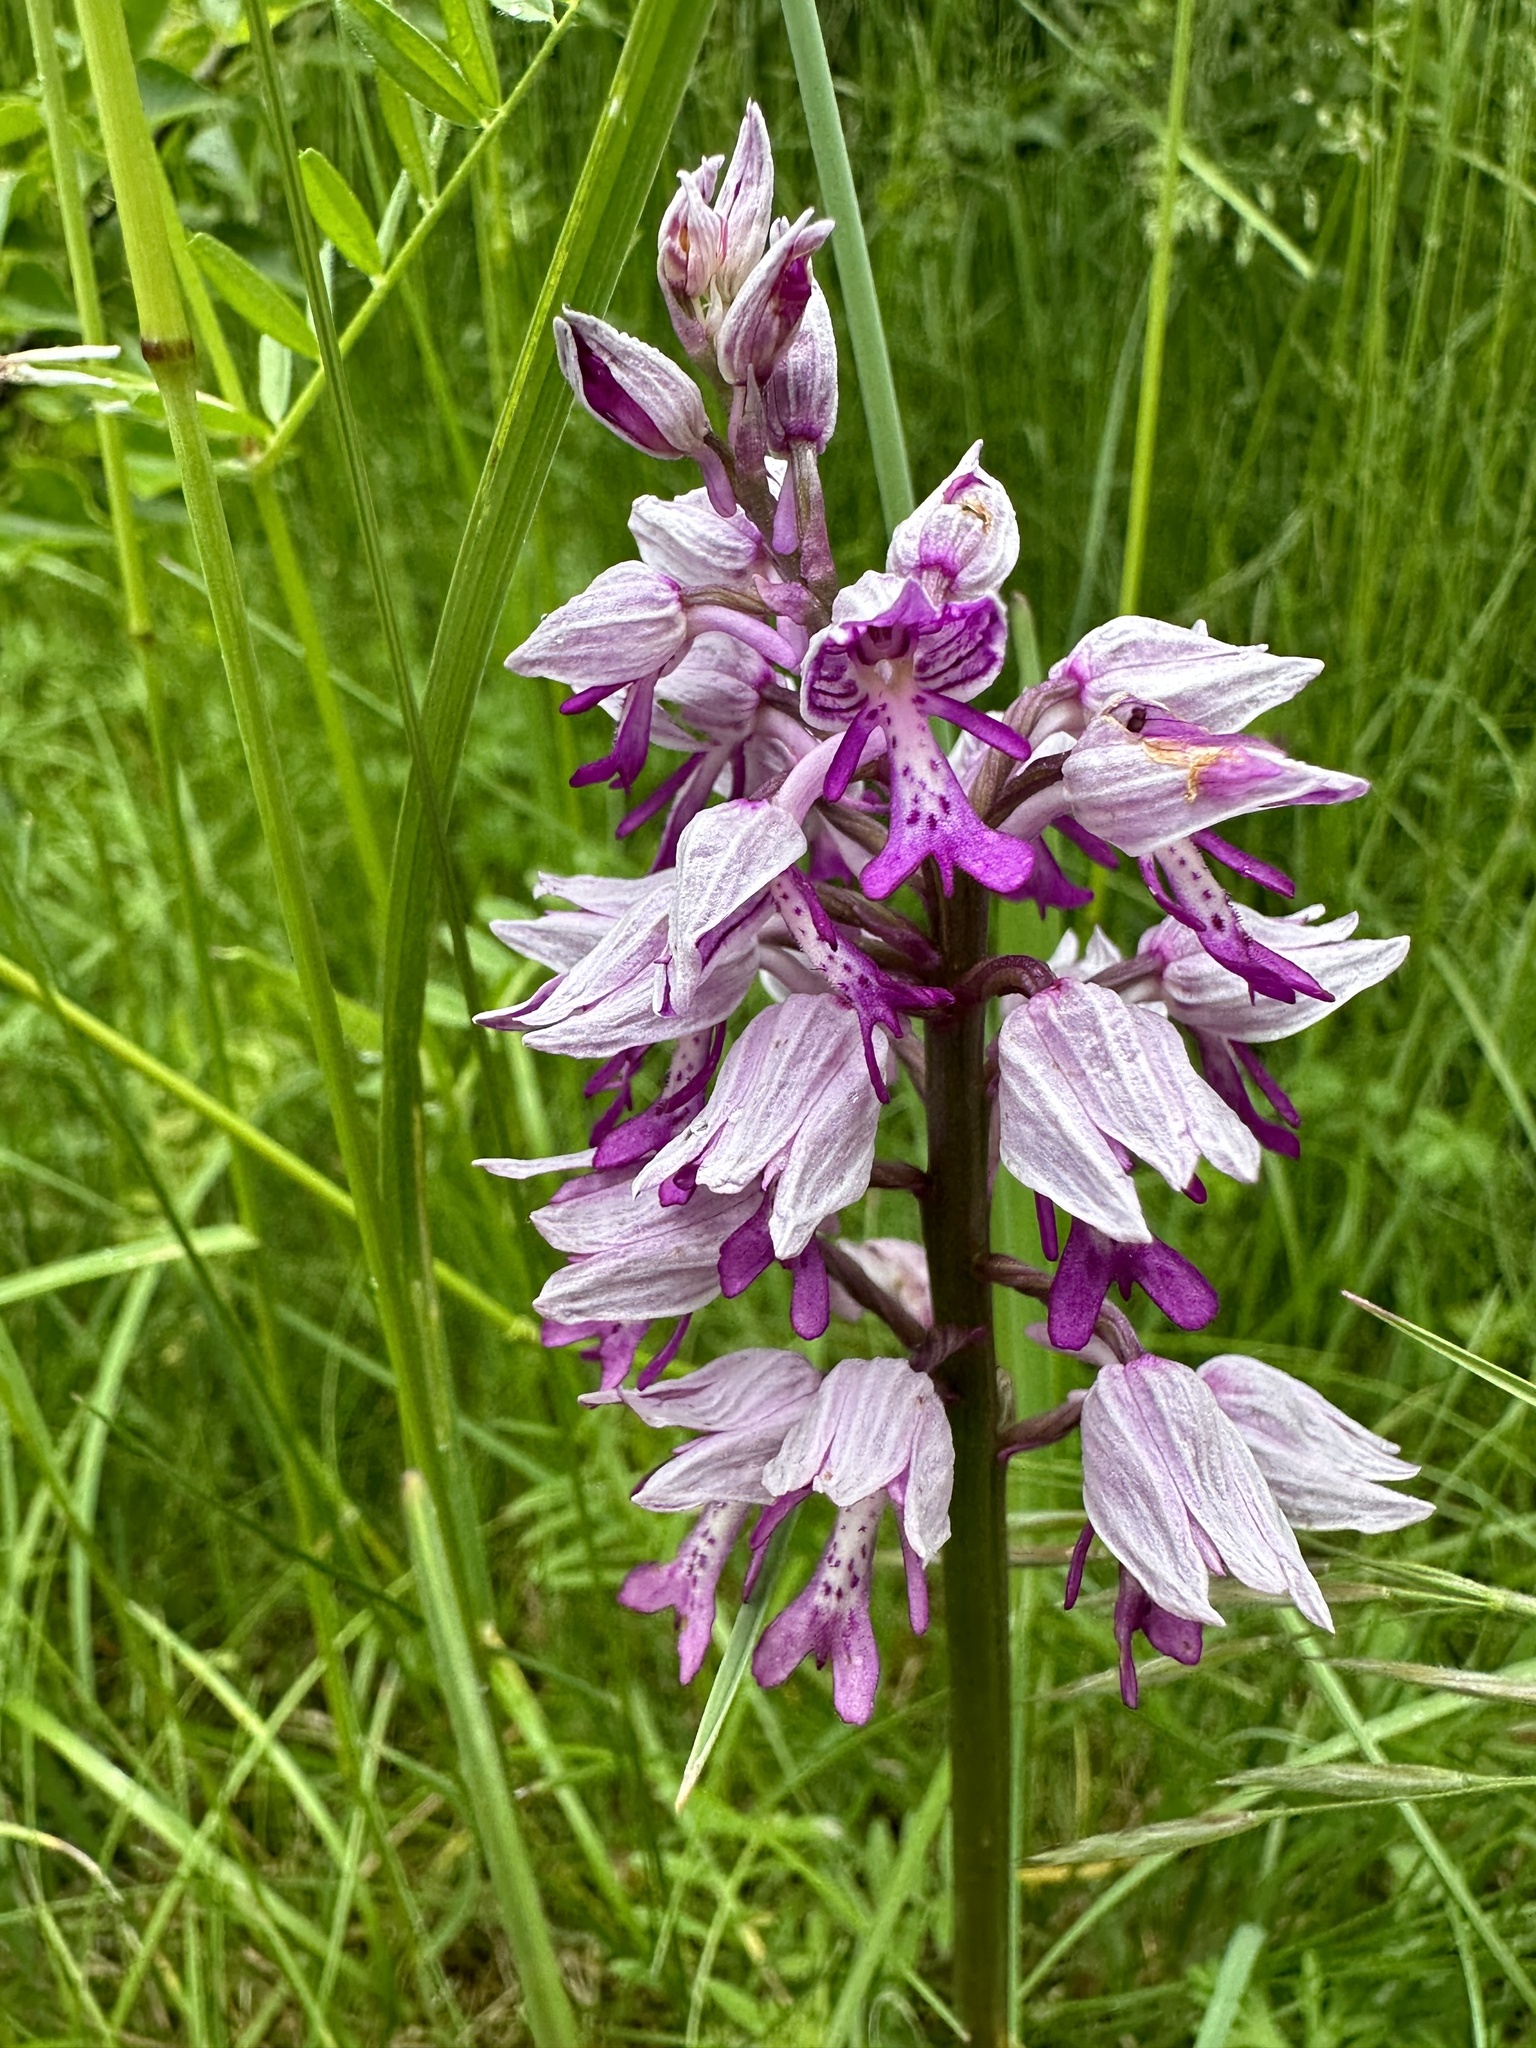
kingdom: Plantae
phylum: Tracheophyta
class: Liliopsida
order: Asparagales
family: Orchidaceae
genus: Orchis
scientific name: Orchis militaris
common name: Military orchid
